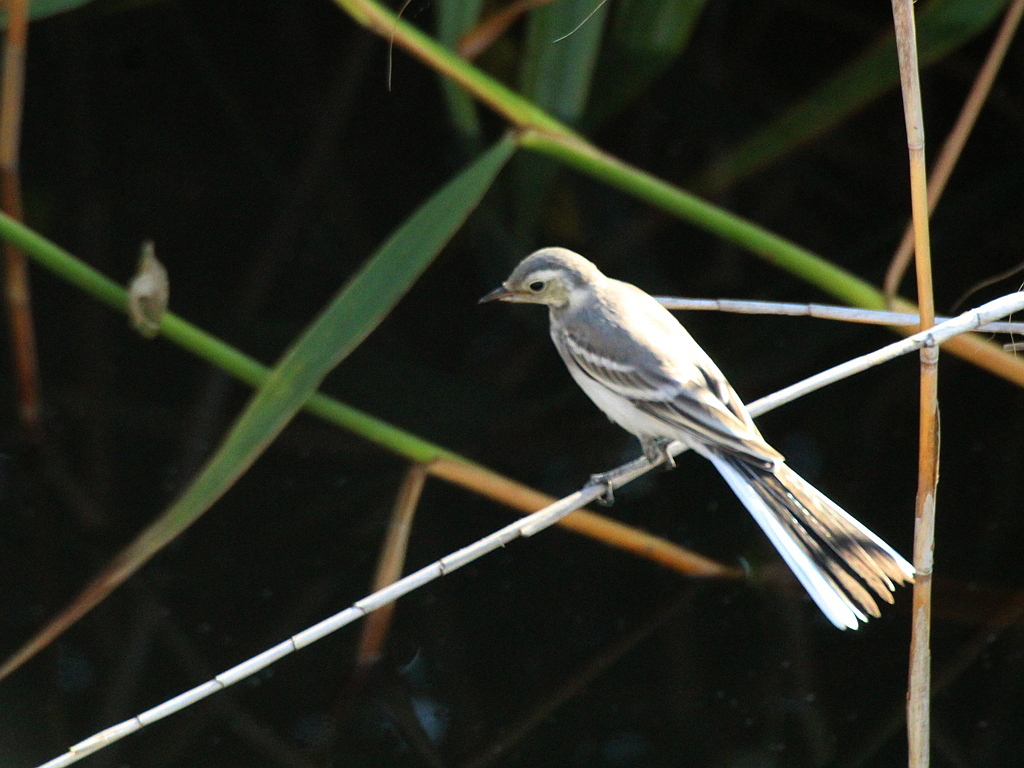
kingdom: Animalia
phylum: Chordata
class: Aves
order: Passeriformes
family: Motacillidae
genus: Motacilla
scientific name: Motacilla citreola
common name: Citrine wagtail
